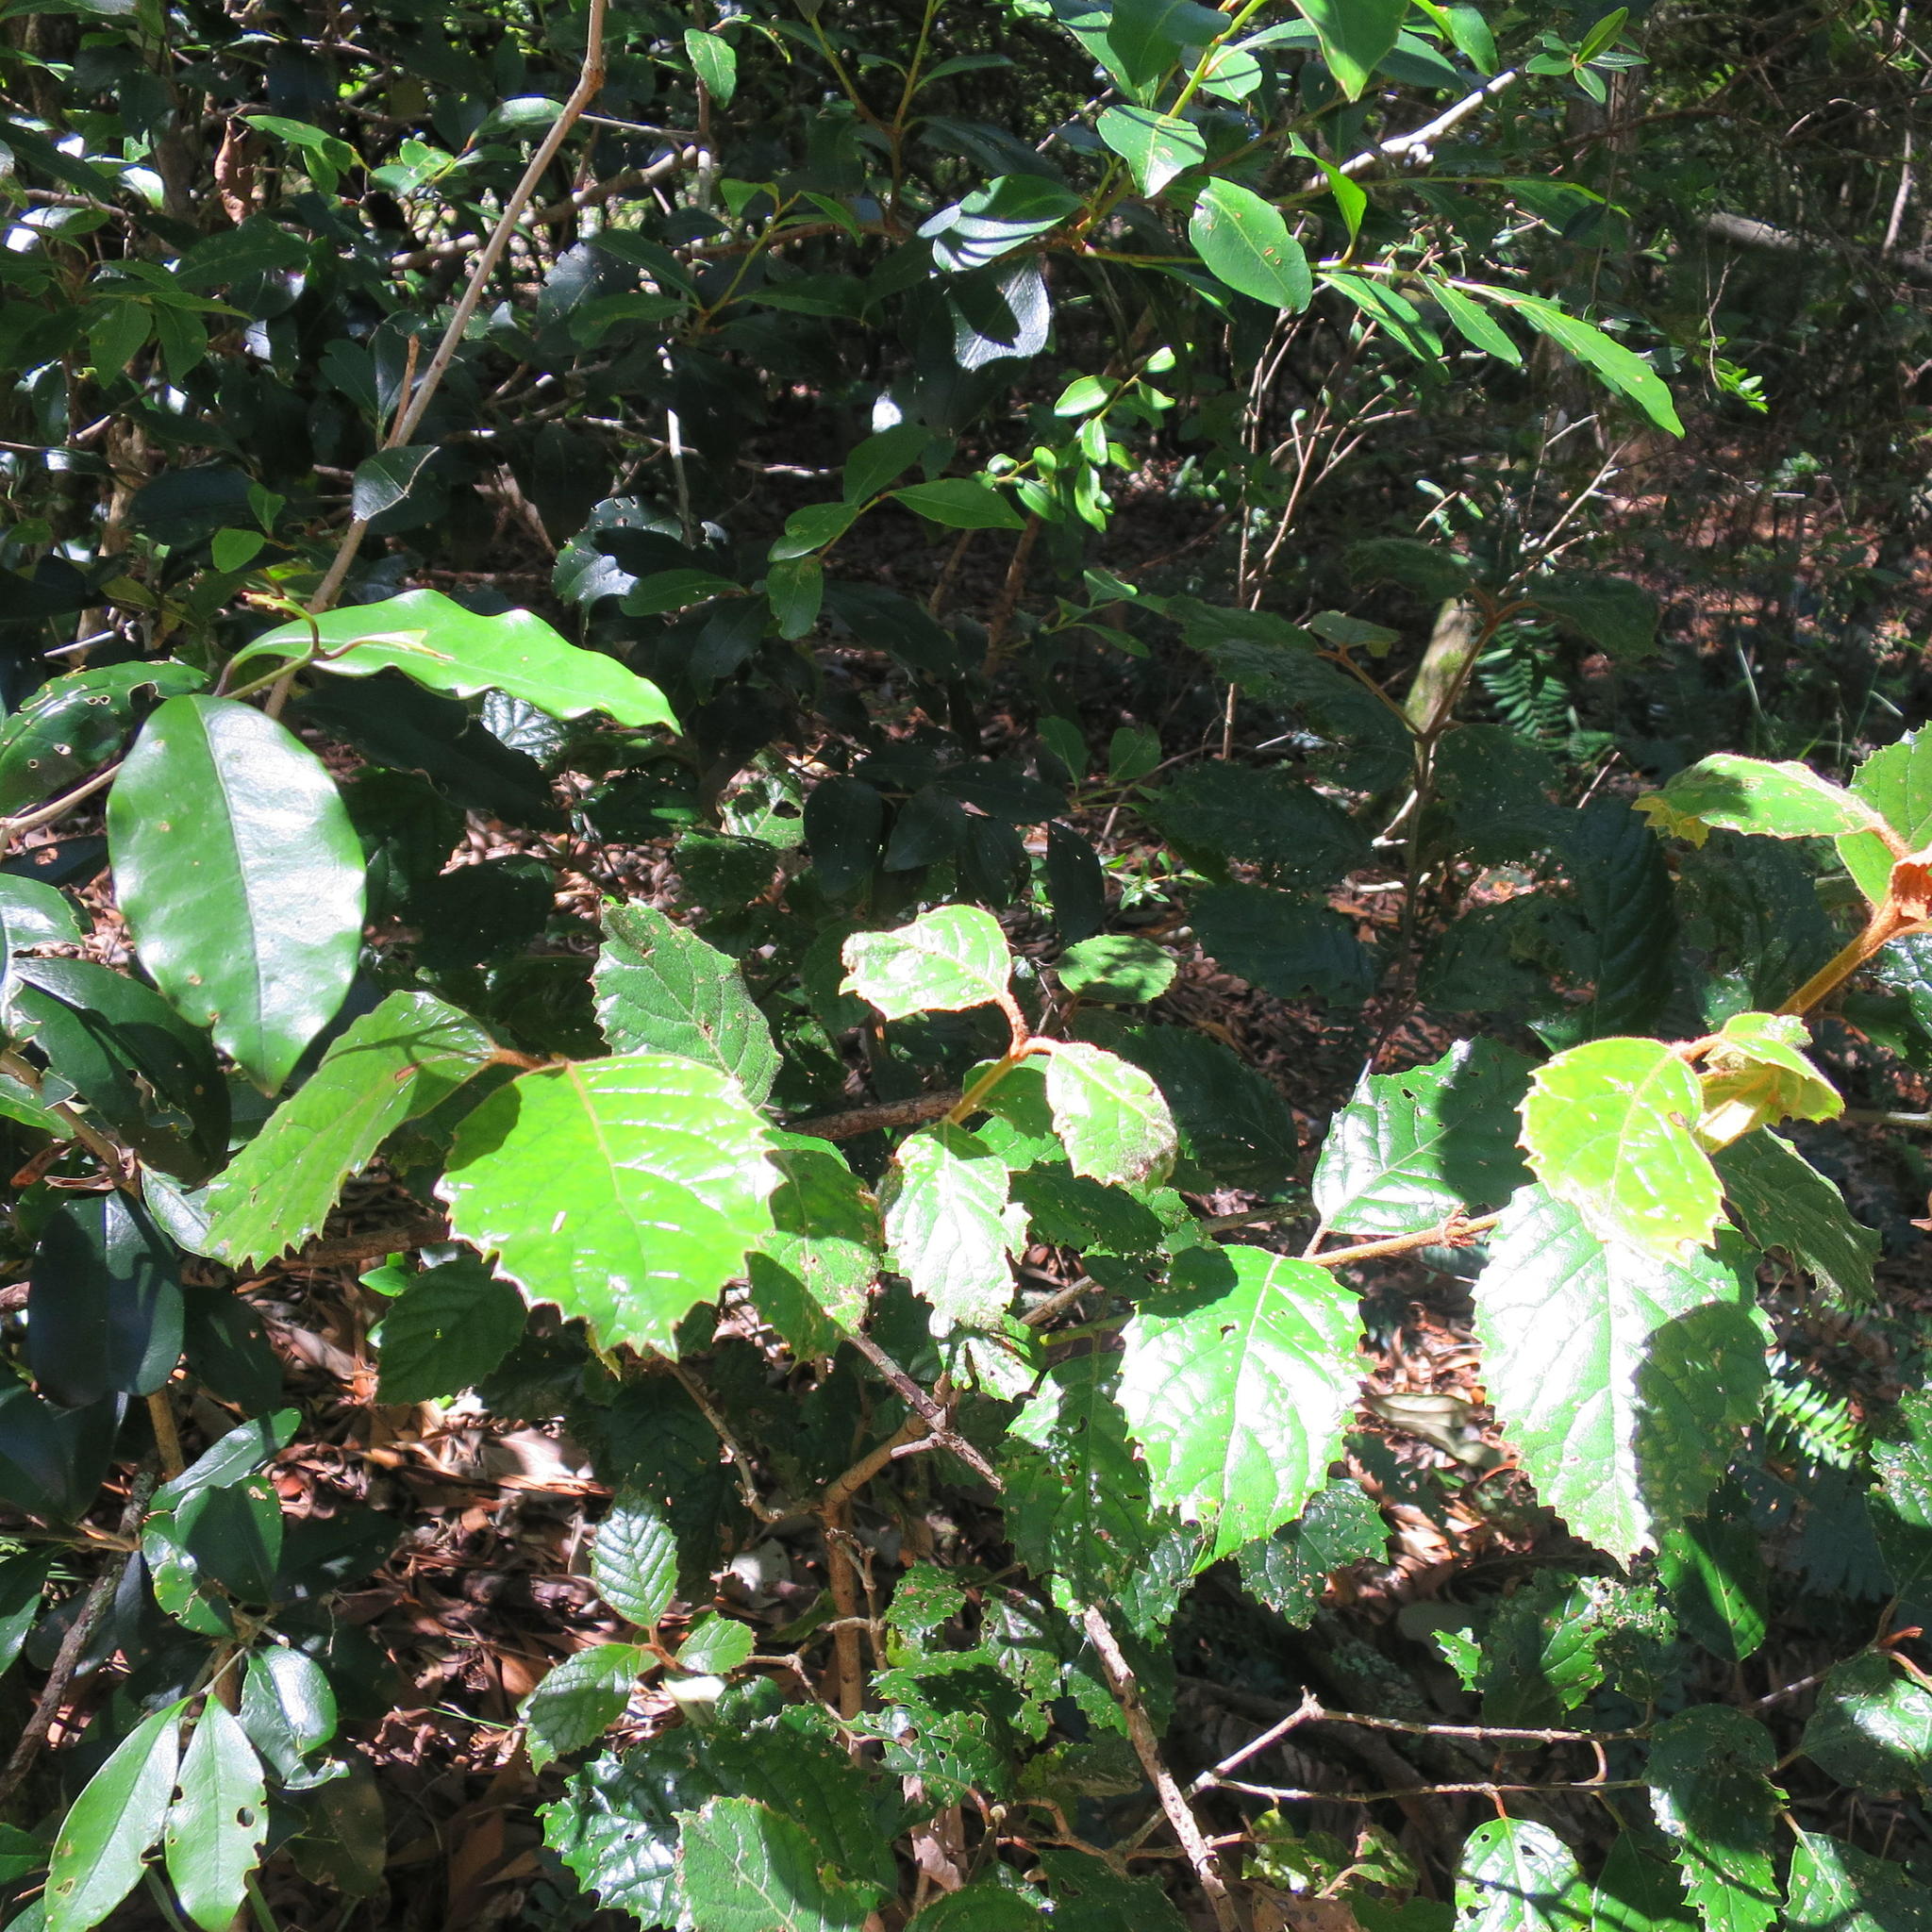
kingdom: Plantae
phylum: Tracheophyta
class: Magnoliopsida
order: Cornales
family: Curtisiaceae
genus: Curtisia
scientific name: Curtisia dentata
